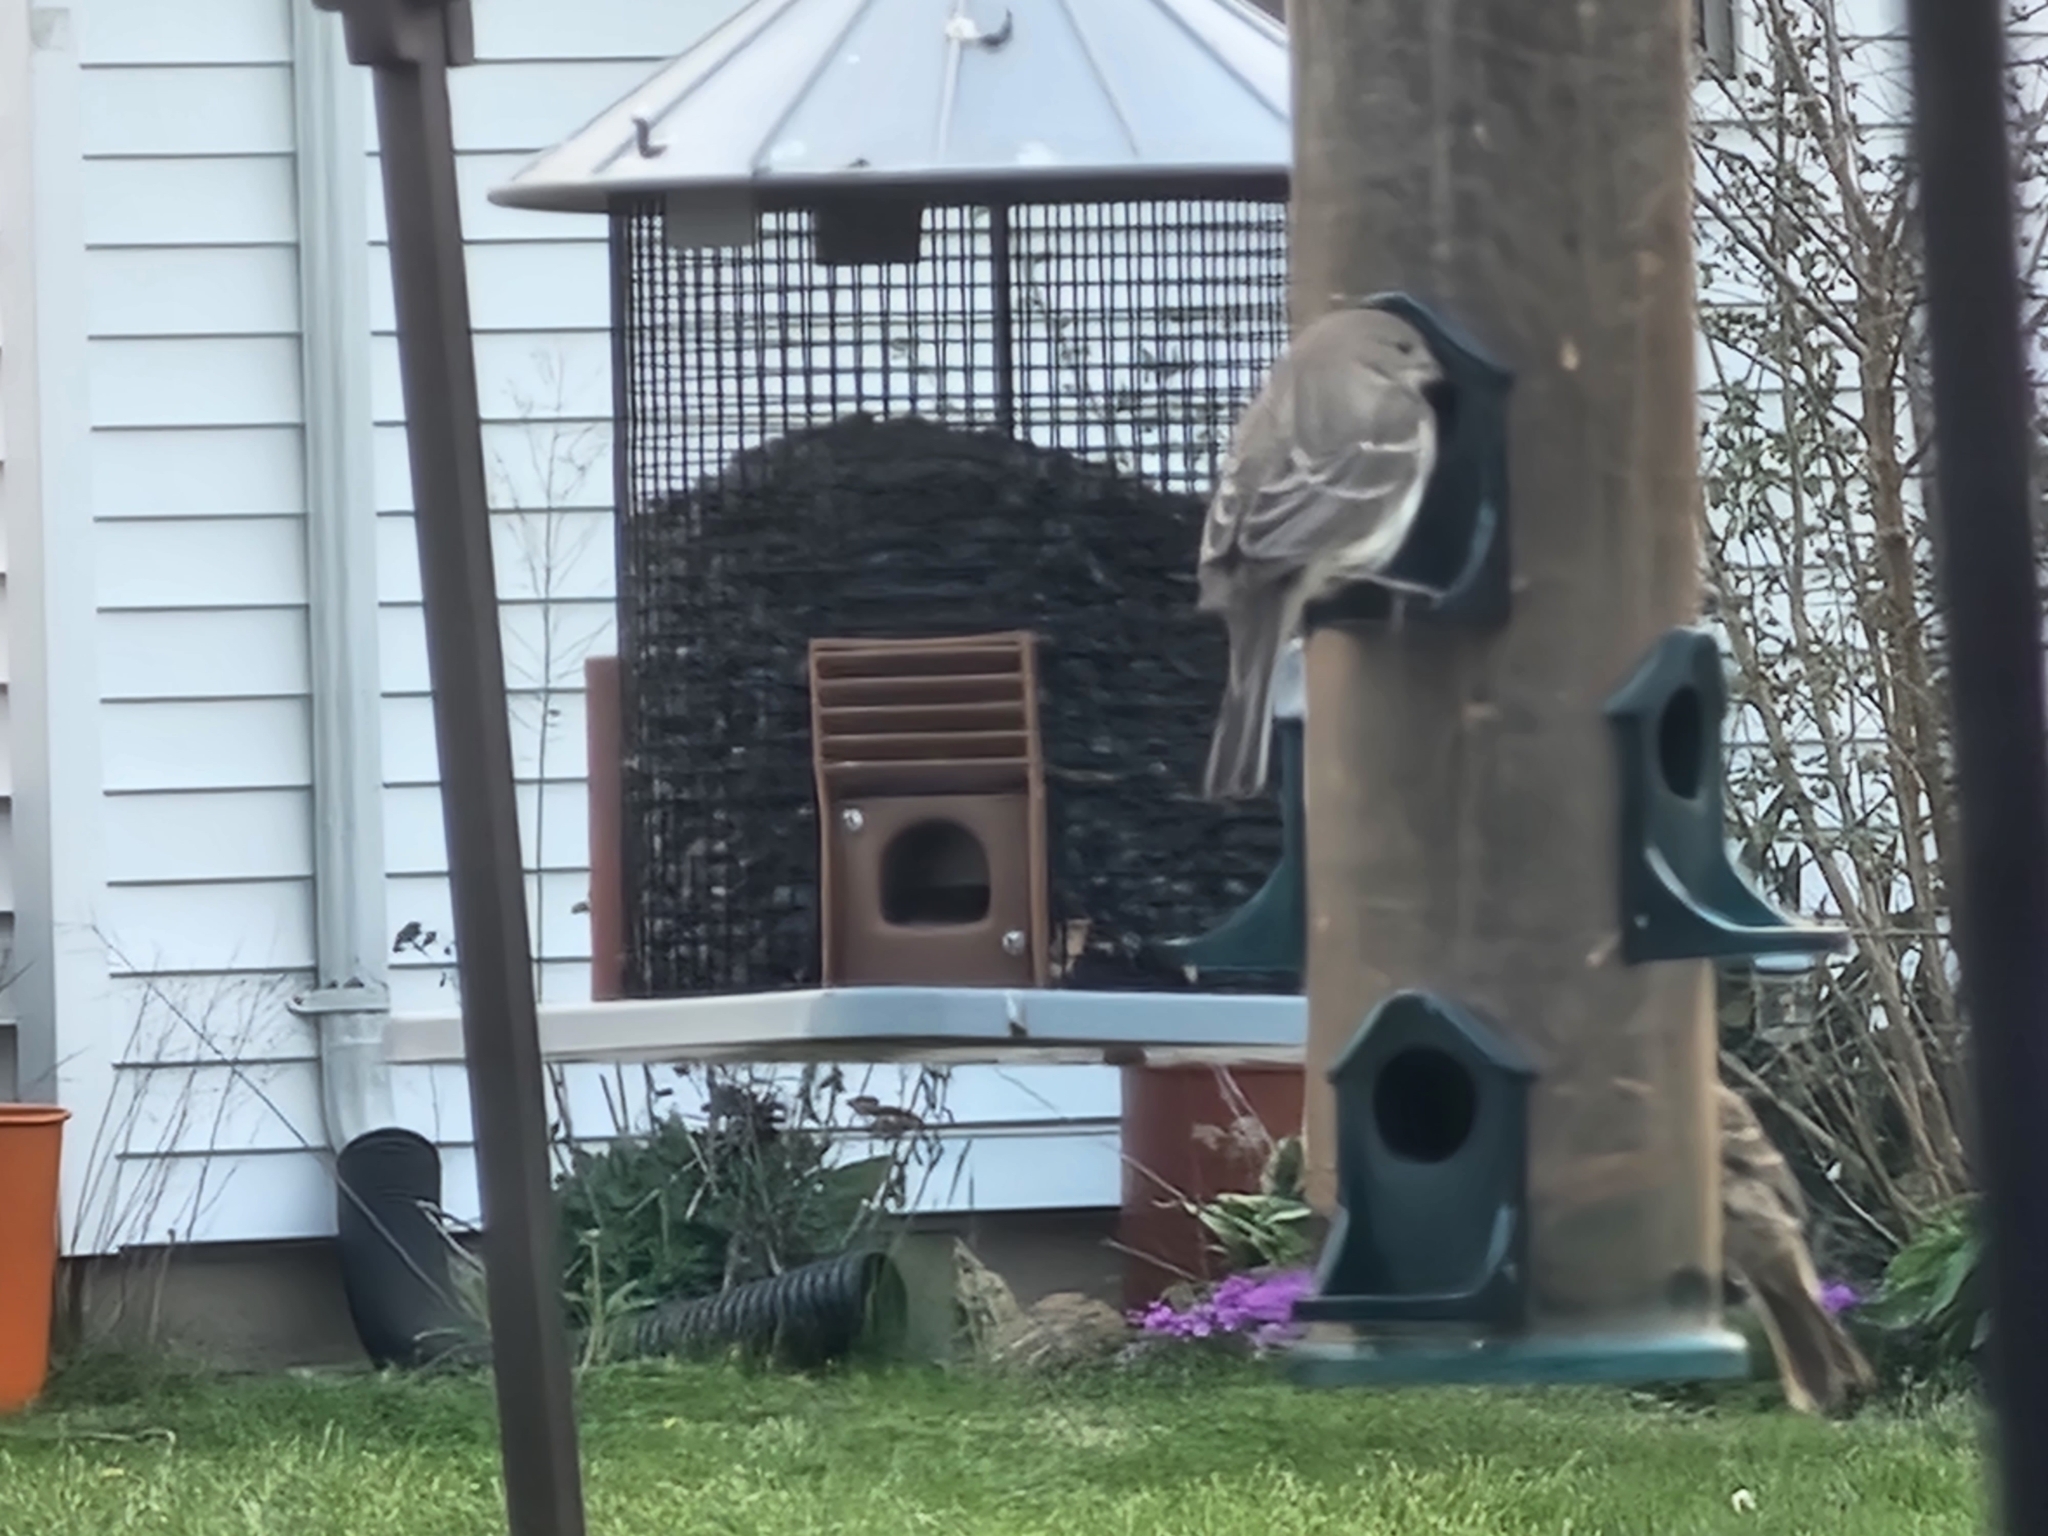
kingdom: Animalia
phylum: Chordata
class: Aves
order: Passeriformes
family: Fringillidae
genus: Haemorhous
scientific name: Haemorhous mexicanus
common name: House finch
